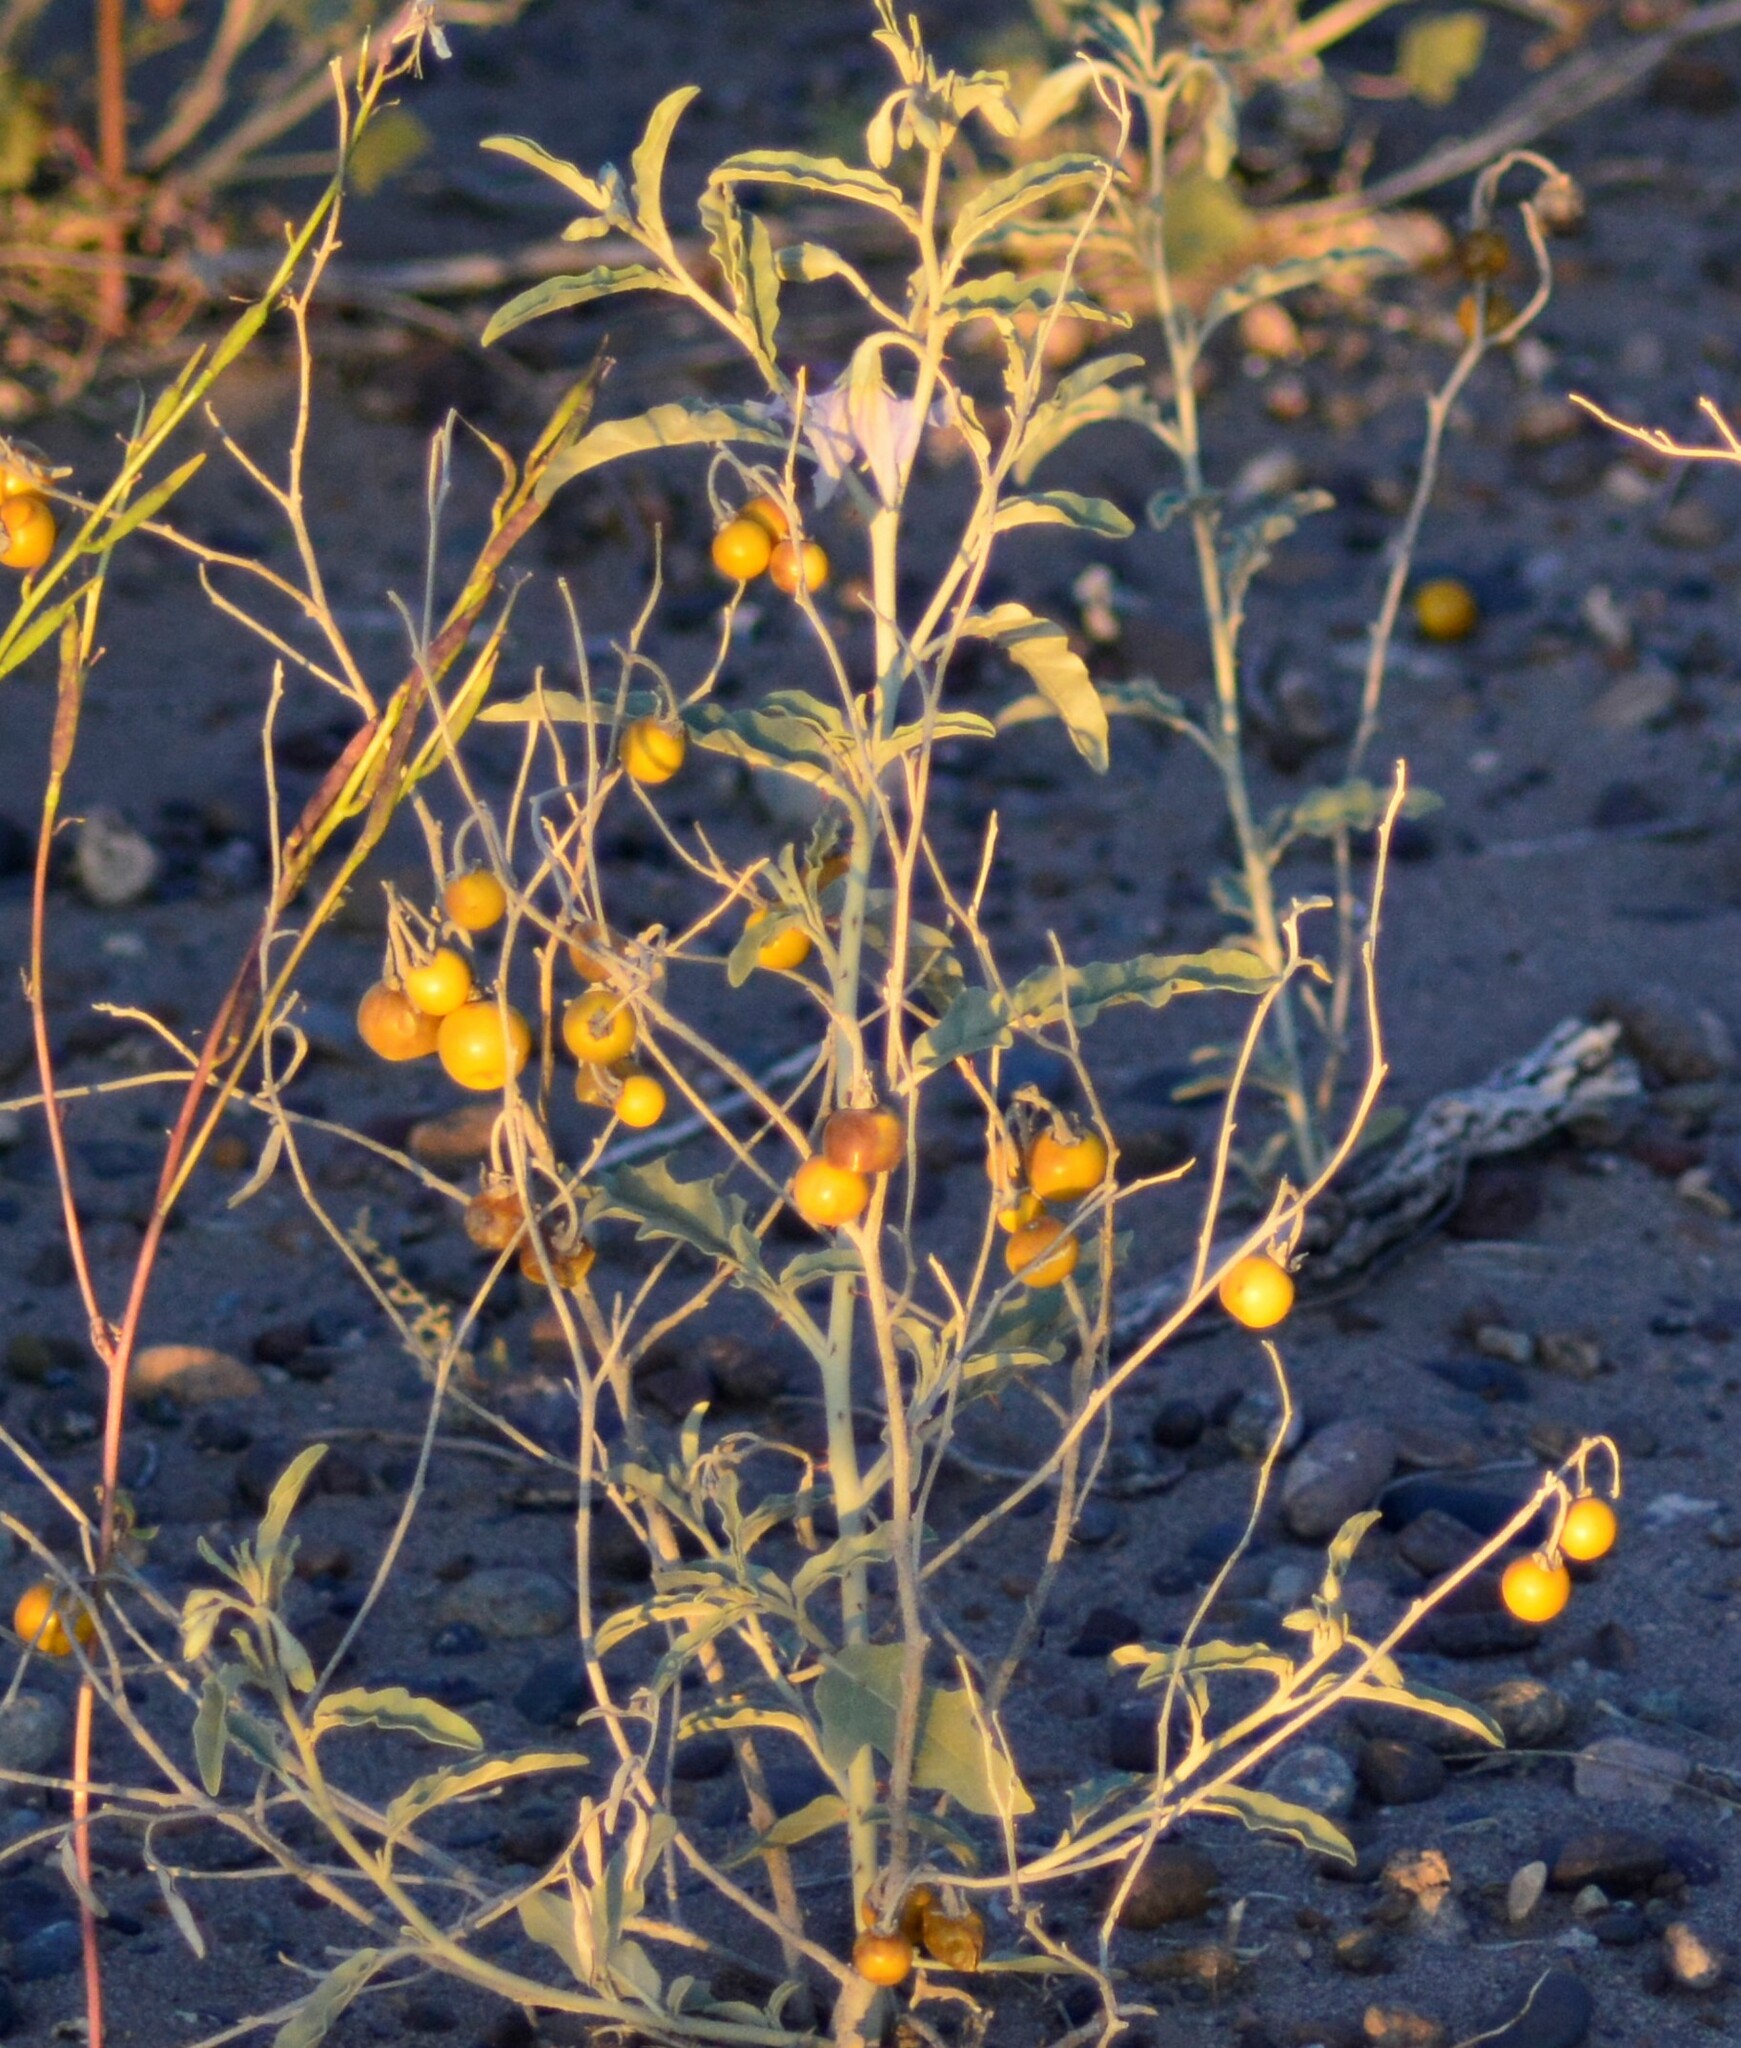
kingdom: Plantae
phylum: Tracheophyta
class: Magnoliopsida
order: Solanales
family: Solanaceae
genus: Solanum
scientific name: Solanum elaeagnifolium
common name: Silverleaf nightshade
